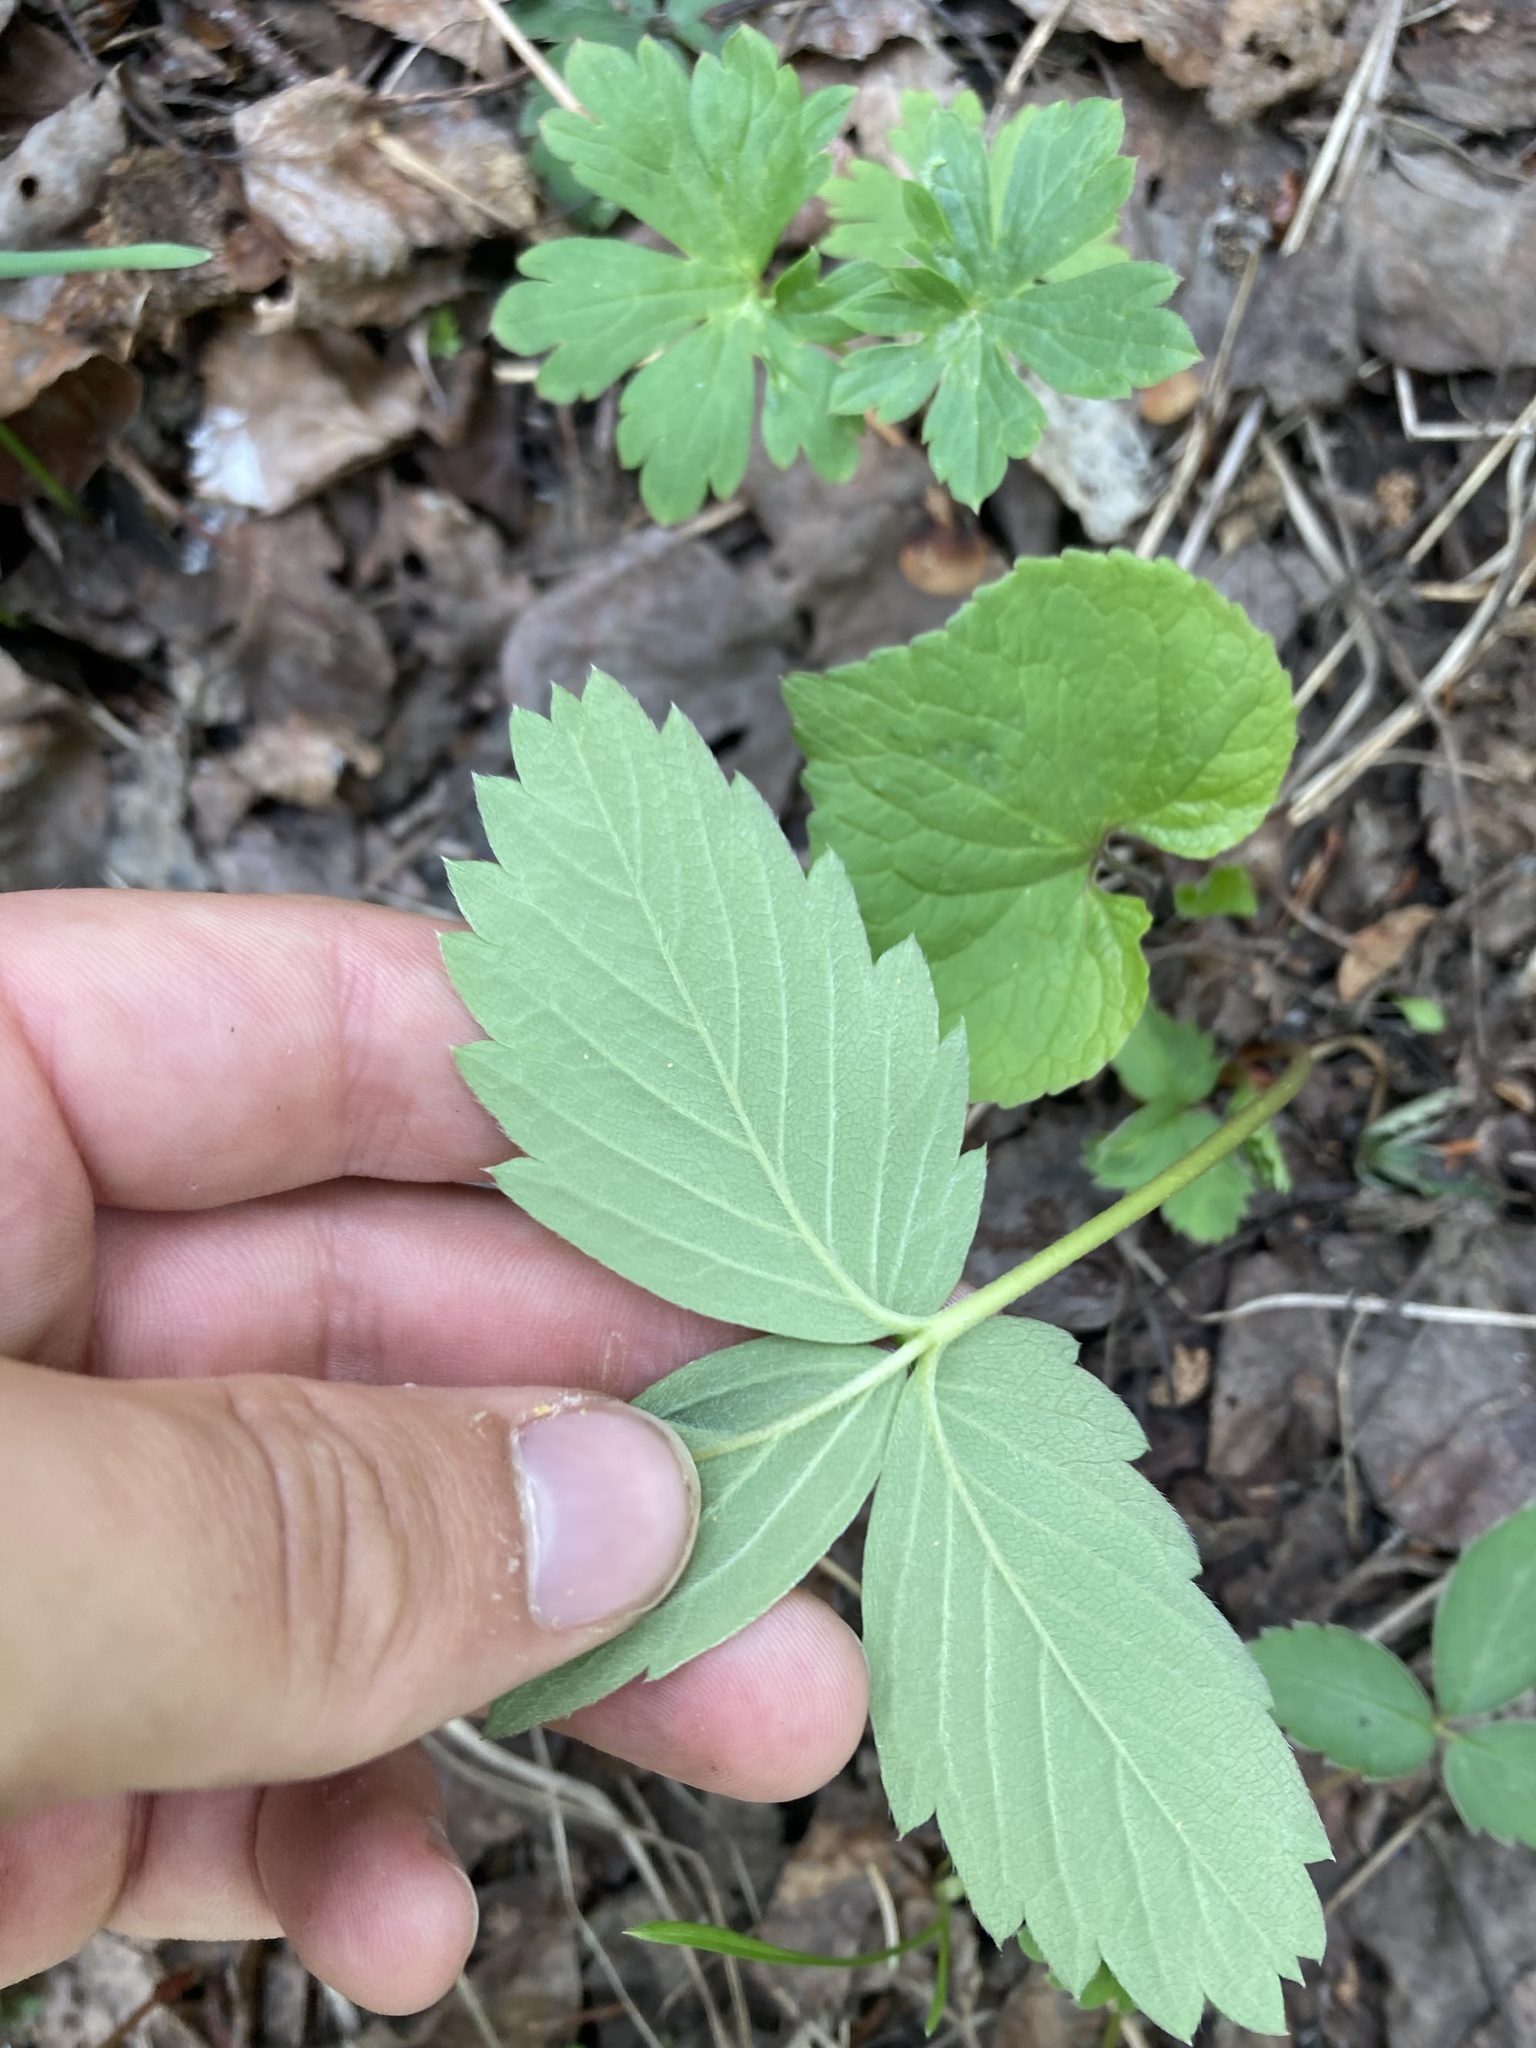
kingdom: Plantae
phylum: Tracheophyta
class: Magnoliopsida
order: Rosales
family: Rosaceae
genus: Fragaria
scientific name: Fragaria virginiana
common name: Thickleaved wild strawberry
